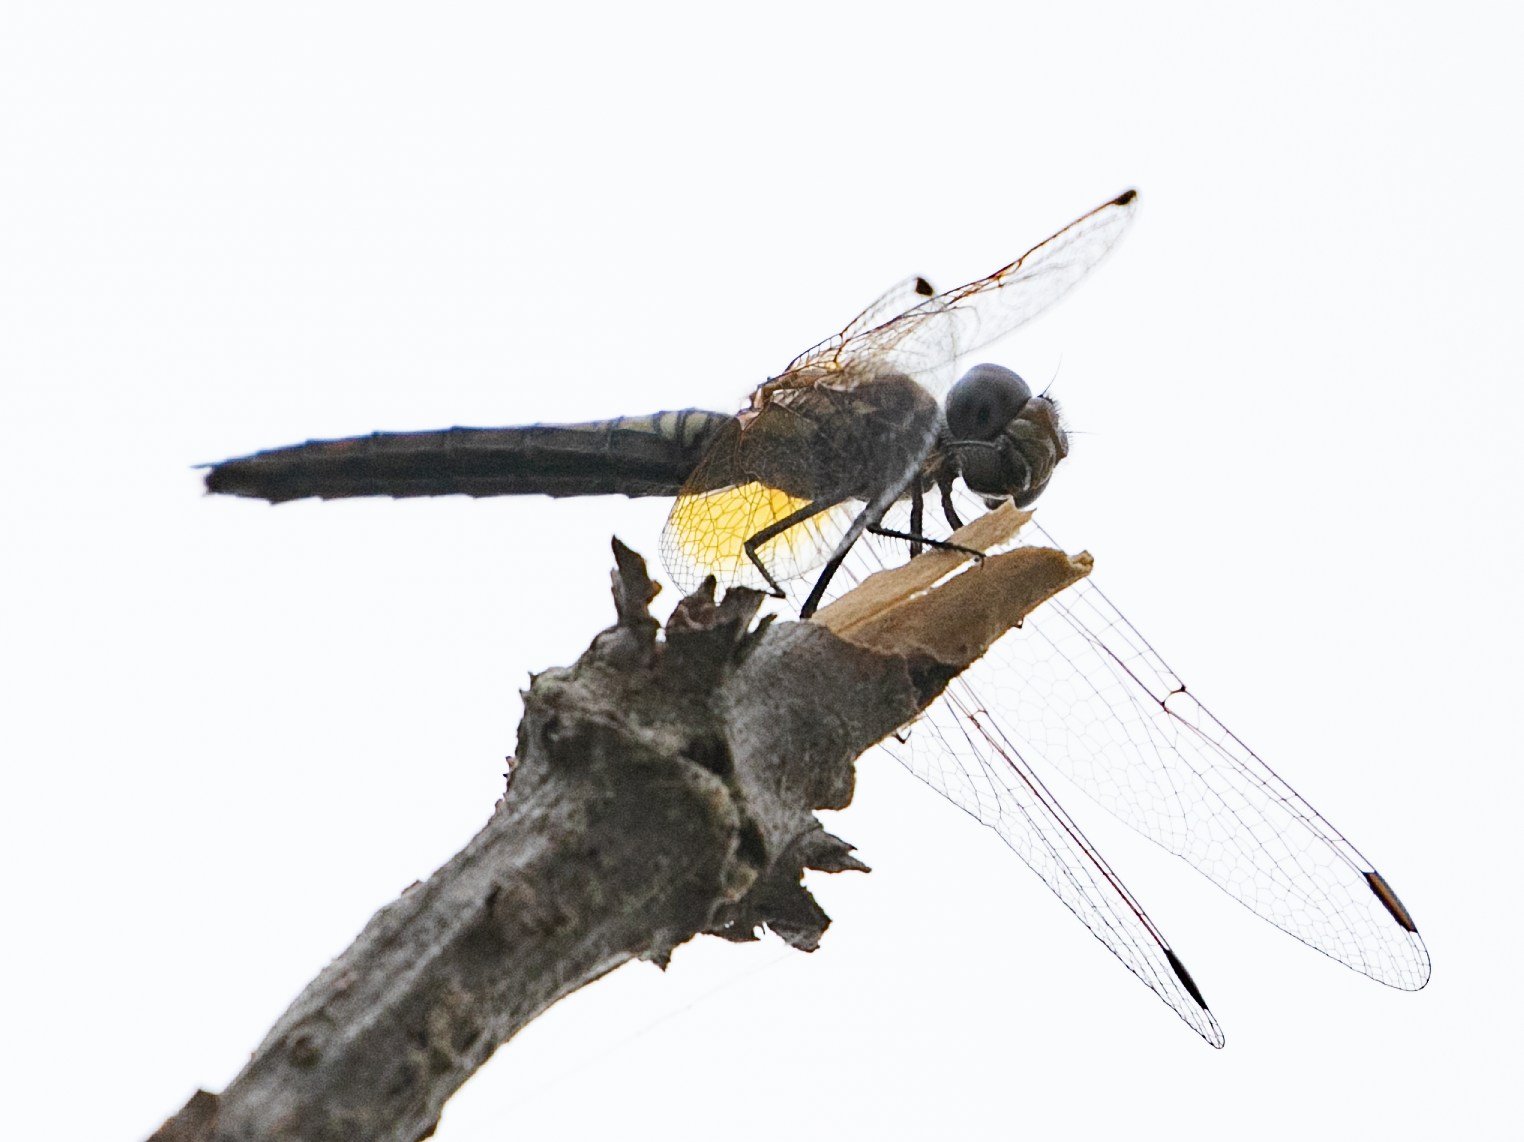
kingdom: Animalia
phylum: Arthropoda
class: Insecta
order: Odonata
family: Libellulidae
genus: Trithemis
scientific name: Trithemis annulata
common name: Violet dropwing
